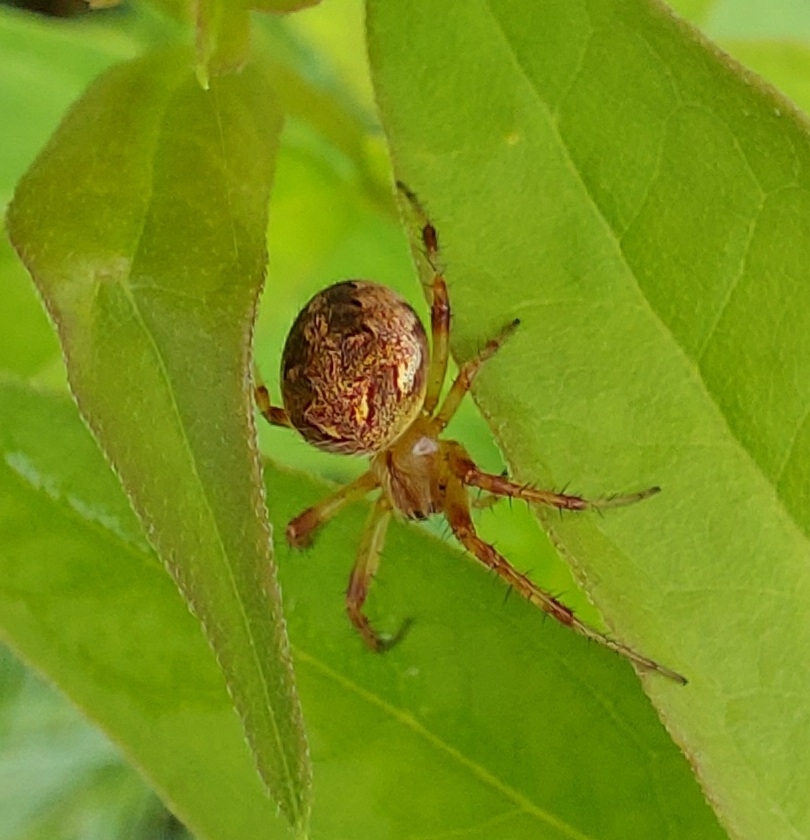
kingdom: Animalia
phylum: Arthropoda
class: Arachnida
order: Araneae
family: Araneidae
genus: Neoscona
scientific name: Neoscona arabesca
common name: Orb weavers
